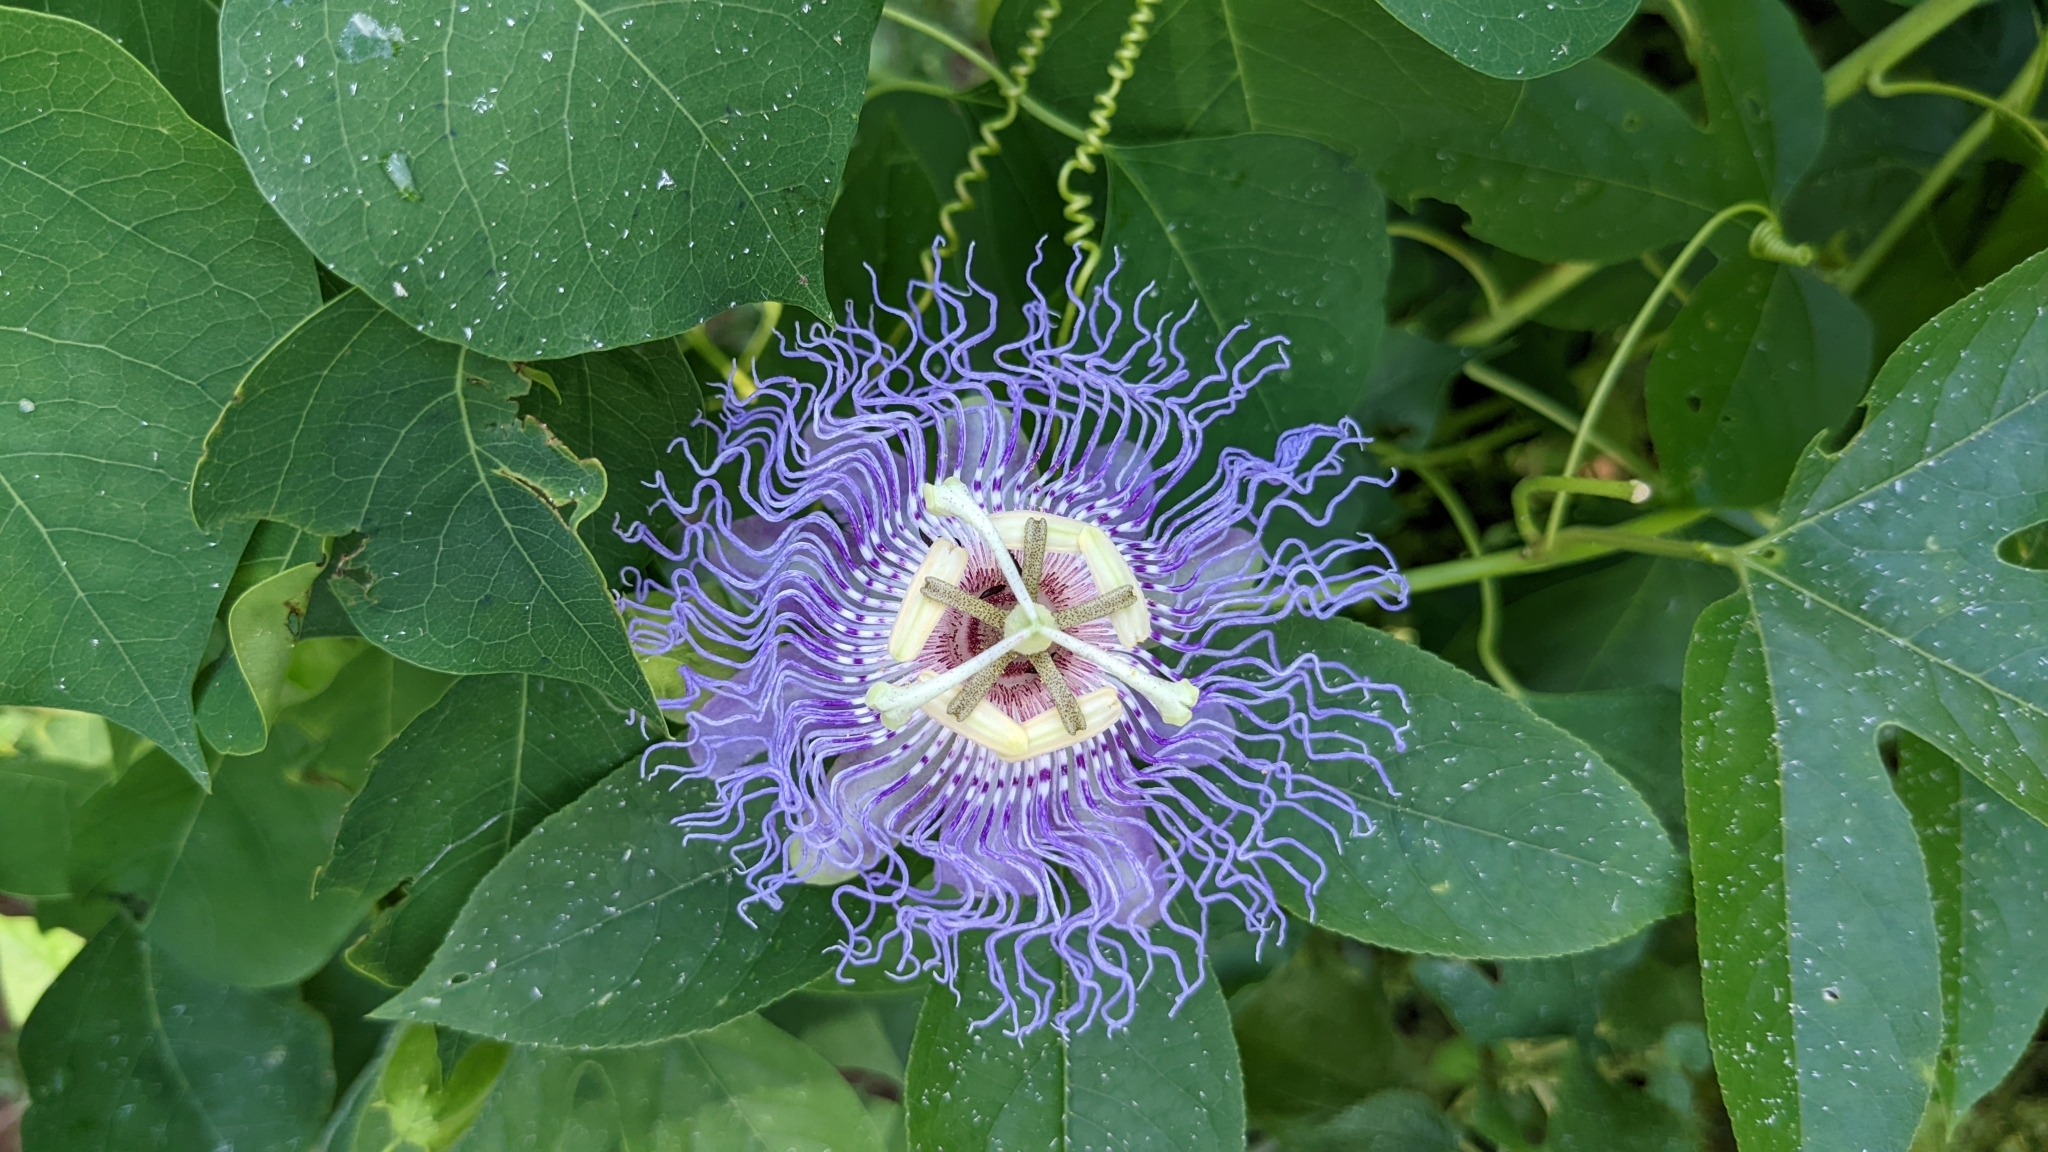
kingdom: Plantae
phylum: Tracheophyta
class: Magnoliopsida
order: Malpighiales
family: Passifloraceae
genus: Passiflora
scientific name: Passiflora incarnata
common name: Apricot-vine
